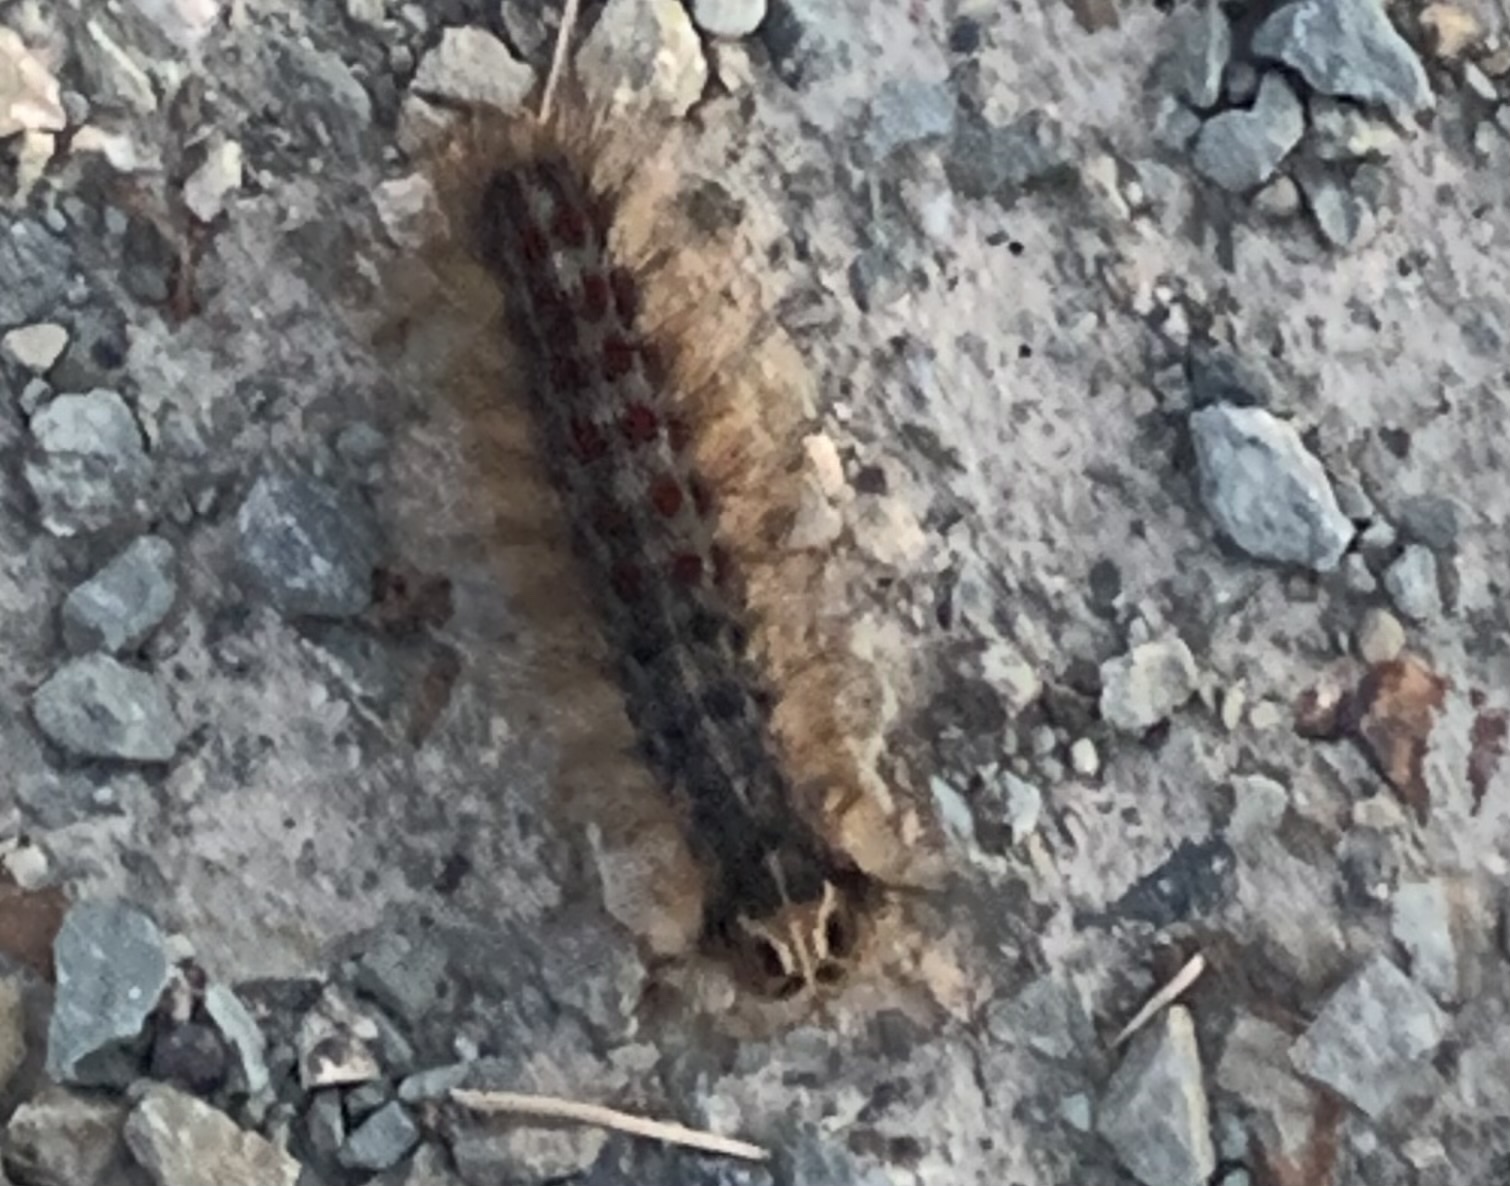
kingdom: Animalia
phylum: Arthropoda
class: Insecta
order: Lepidoptera
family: Erebidae
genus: Lymantria
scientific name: Lymantria dispar
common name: Gypsy moth
